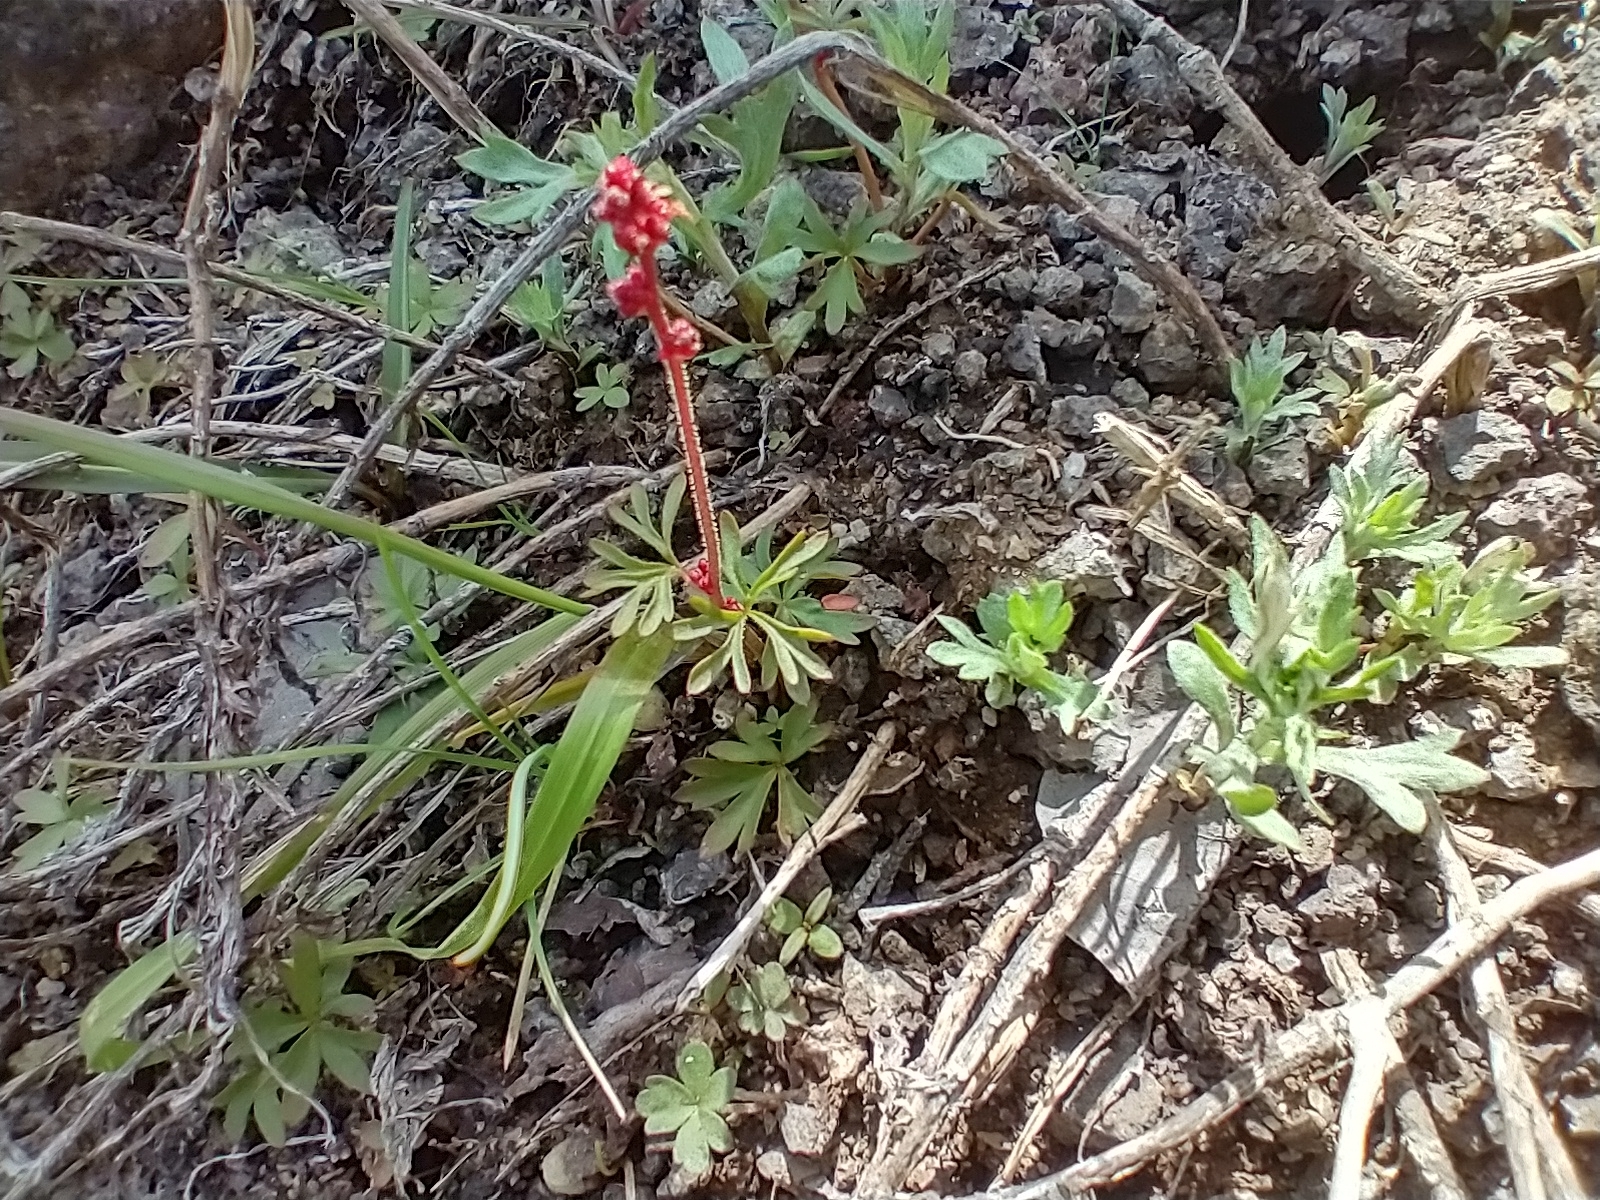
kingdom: Plantae
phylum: Tracheophyta
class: Magnoliopsida
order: Saxifragales
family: Saxifragaceae
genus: Lithophragma
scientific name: Lithophragma glabrum
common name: Bulbous prairie-star
